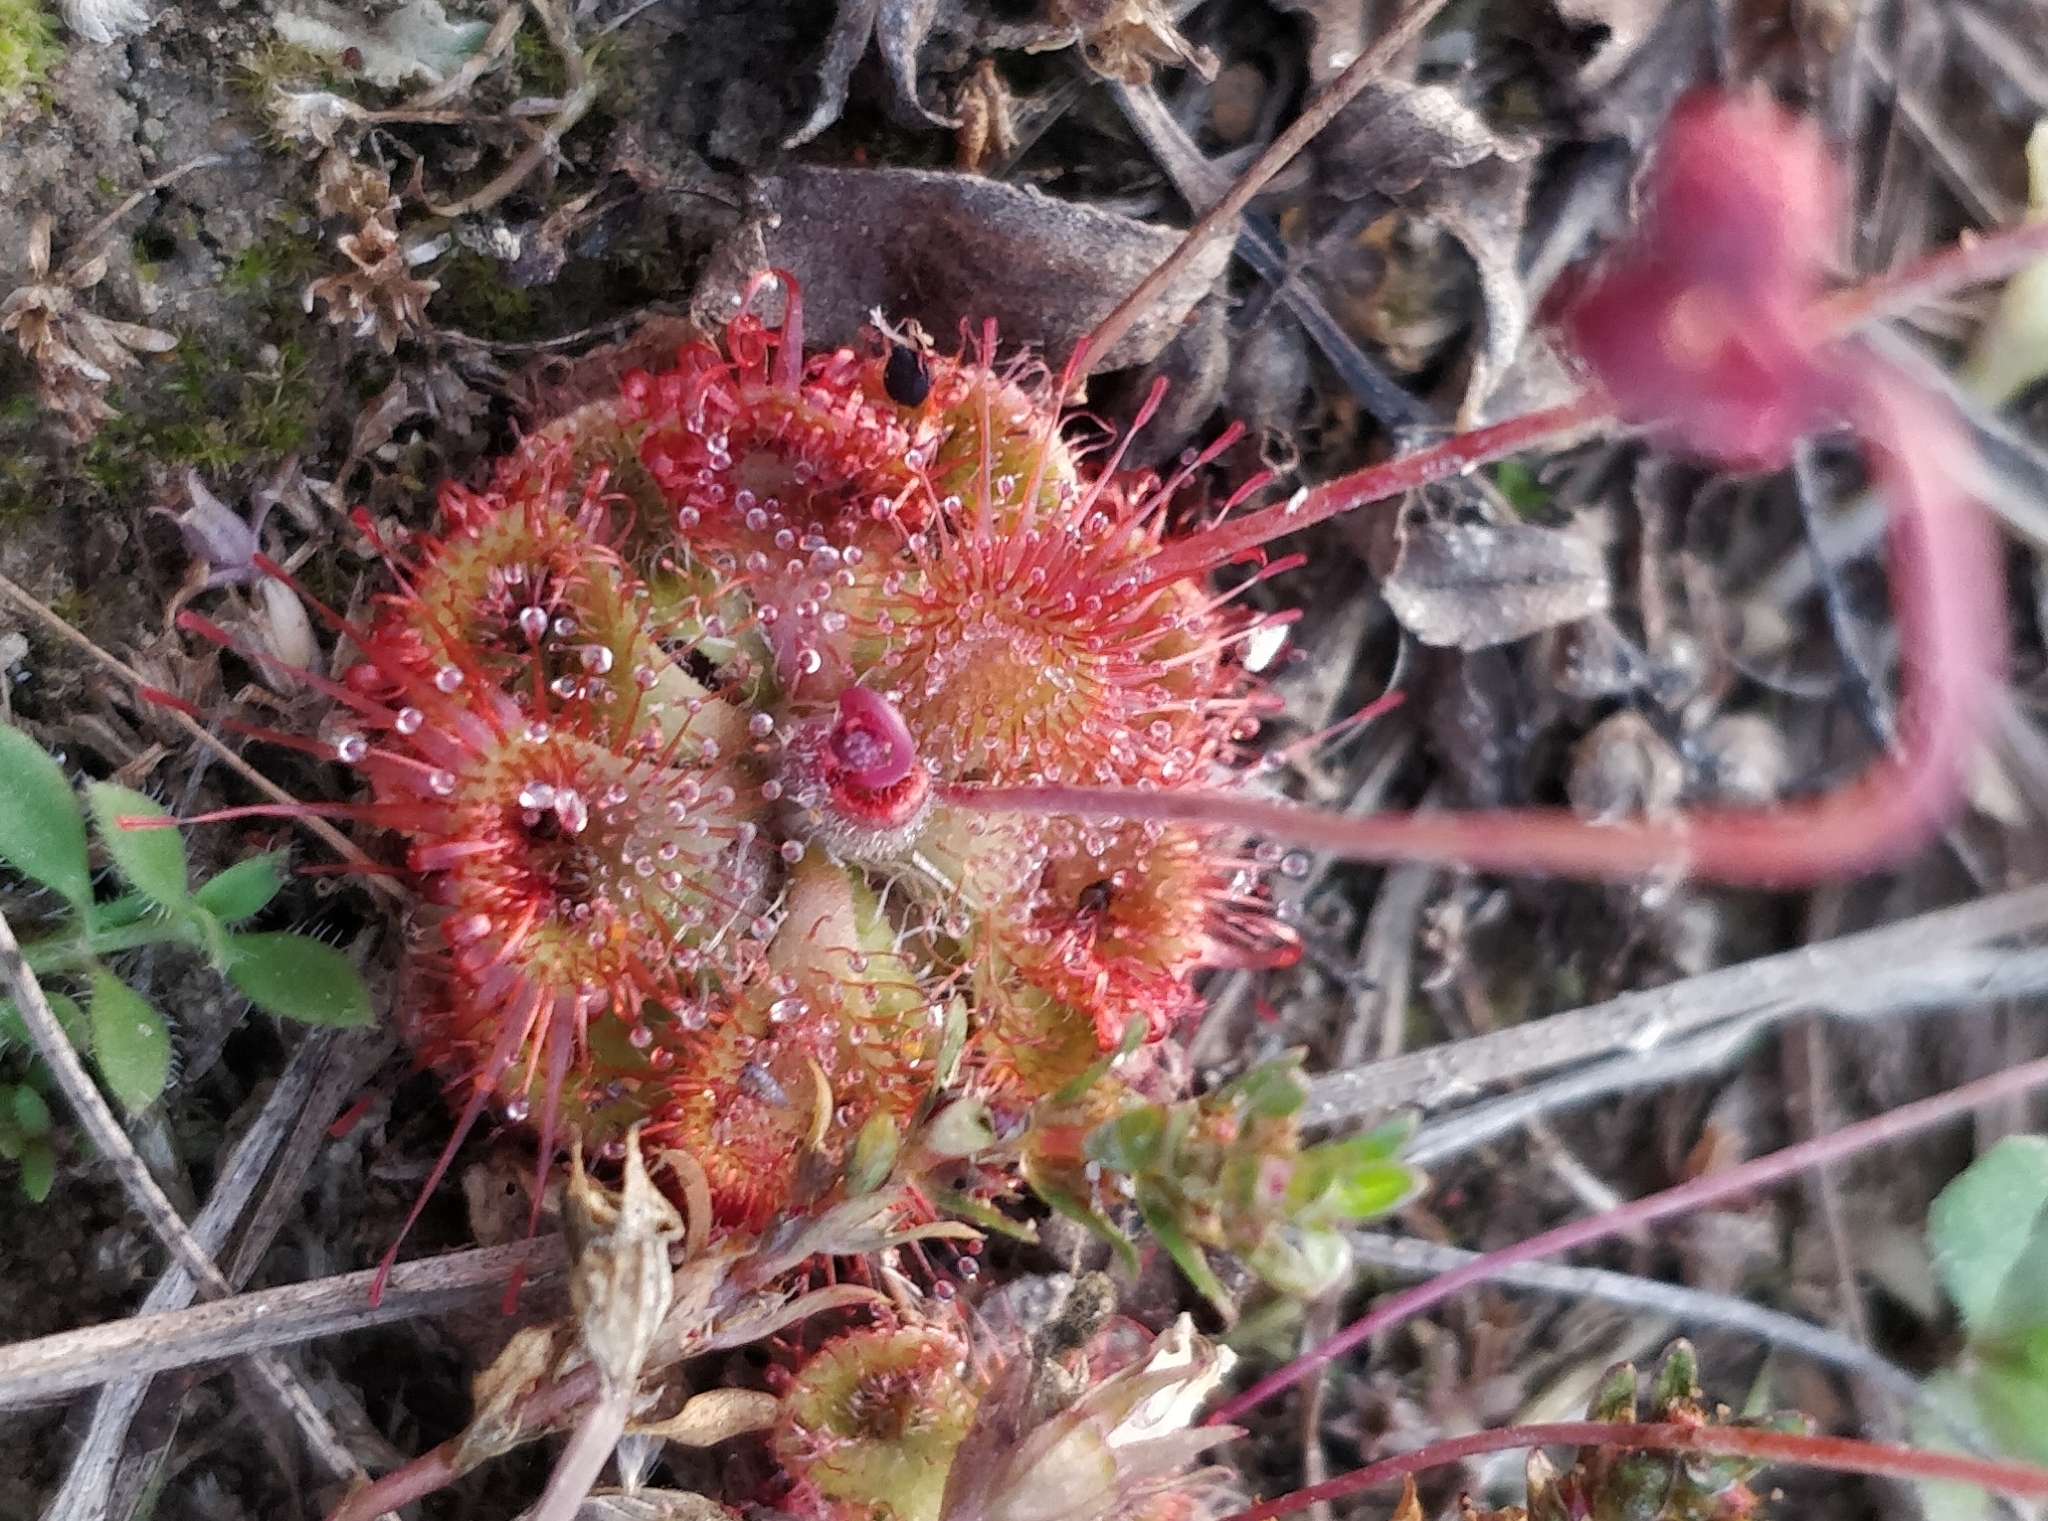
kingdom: Plantae
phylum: Tracheophyta
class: Magnoliopsida
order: Caryophyllales
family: Droseraceae
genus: Drosera
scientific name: Drosera spatulata
